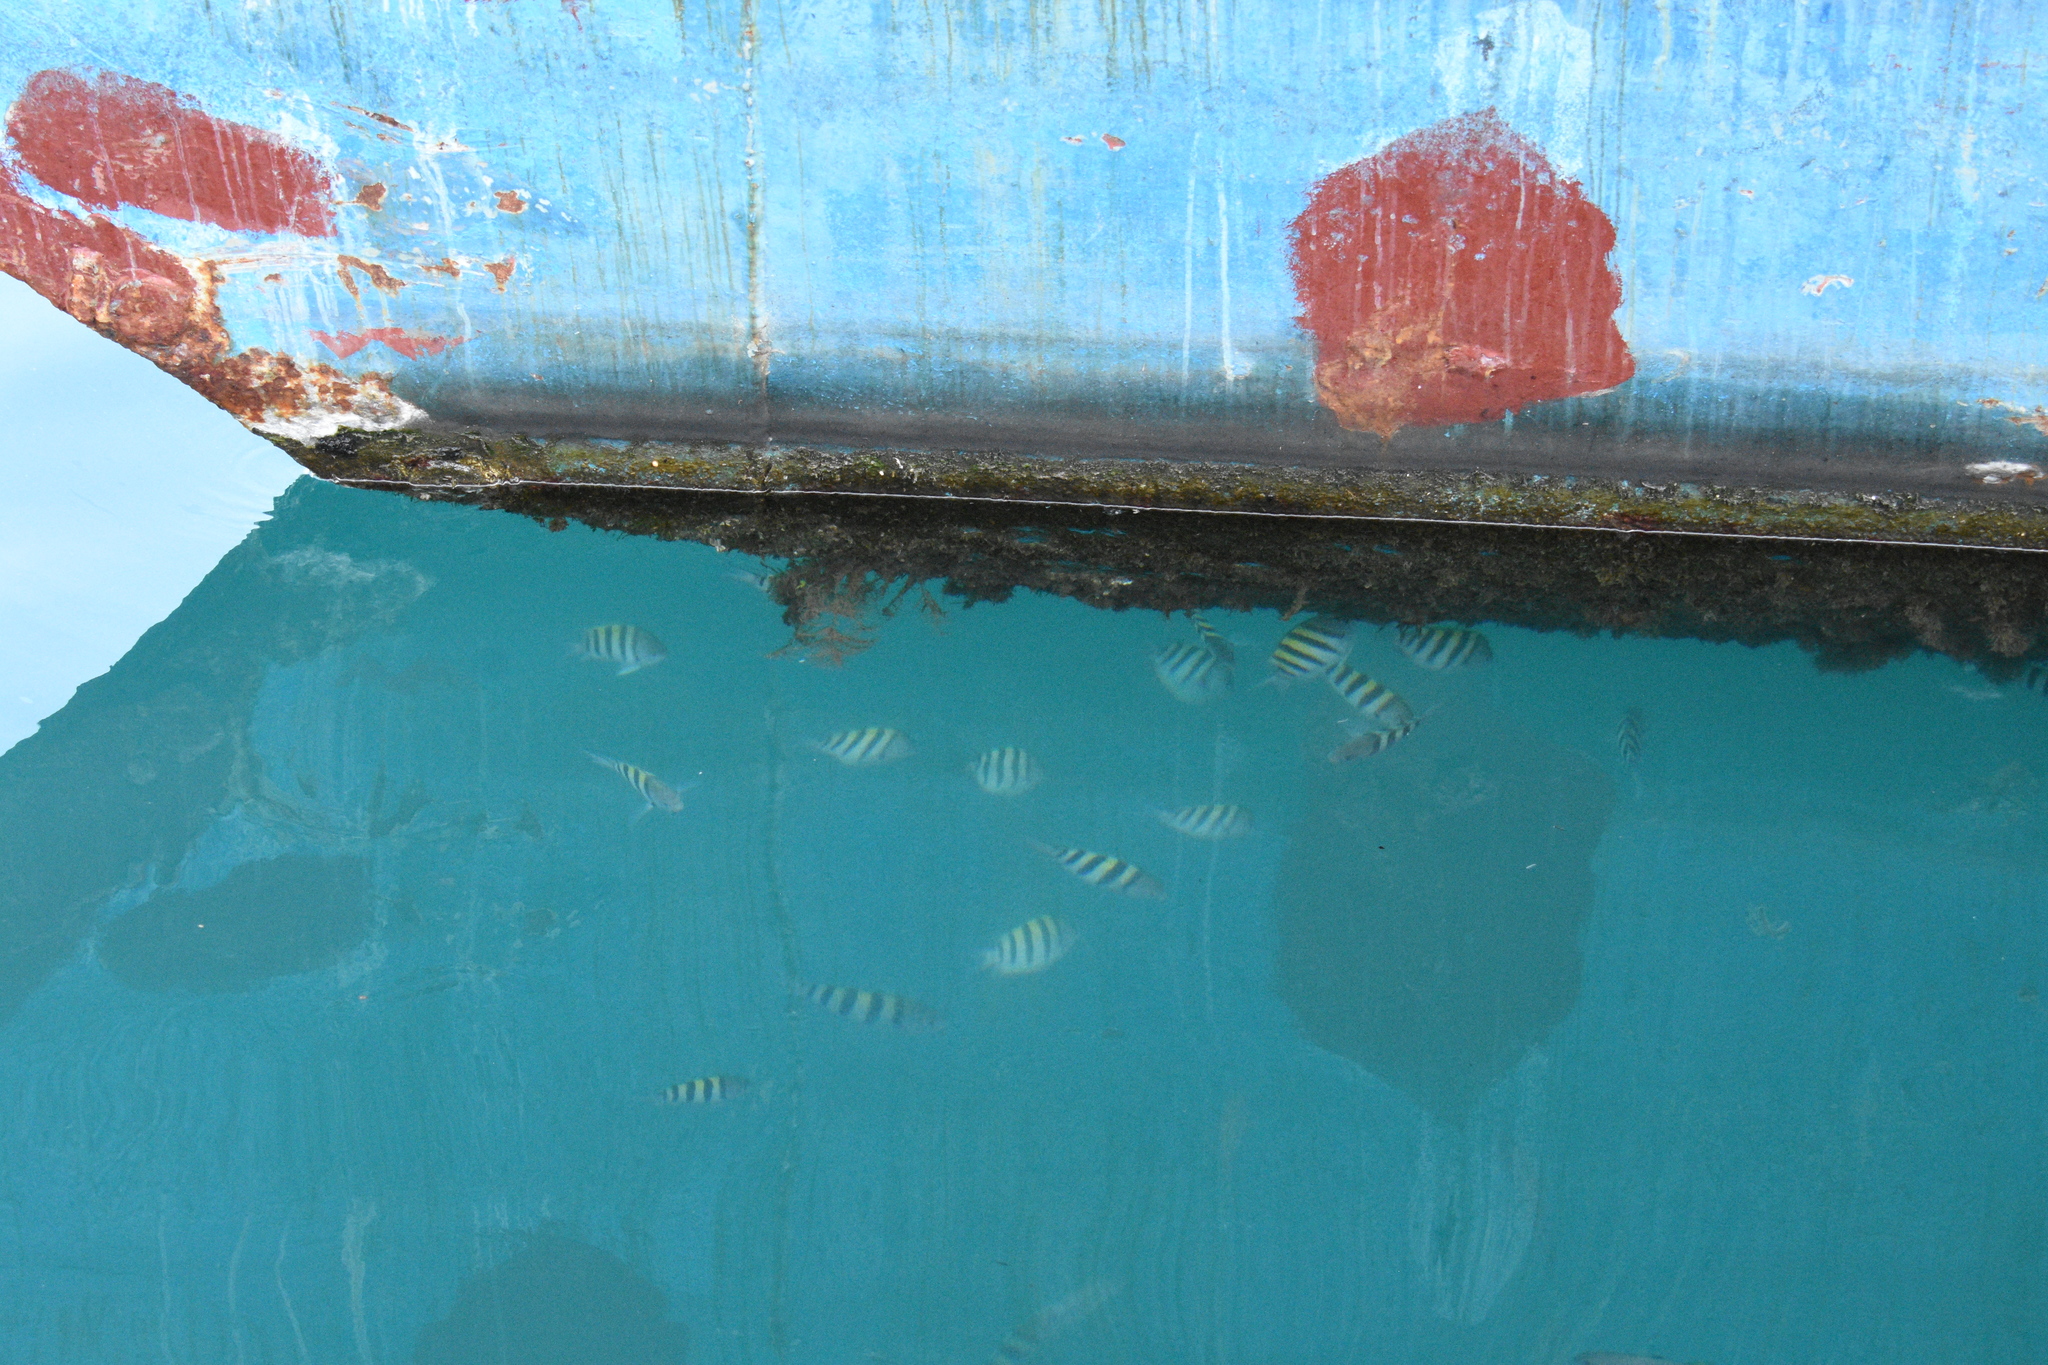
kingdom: Animalia
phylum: Chordata
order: Perciformes
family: Pomacentridae
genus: Abudefduf
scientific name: Abudefduf saxatilis
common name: Sergeant major
